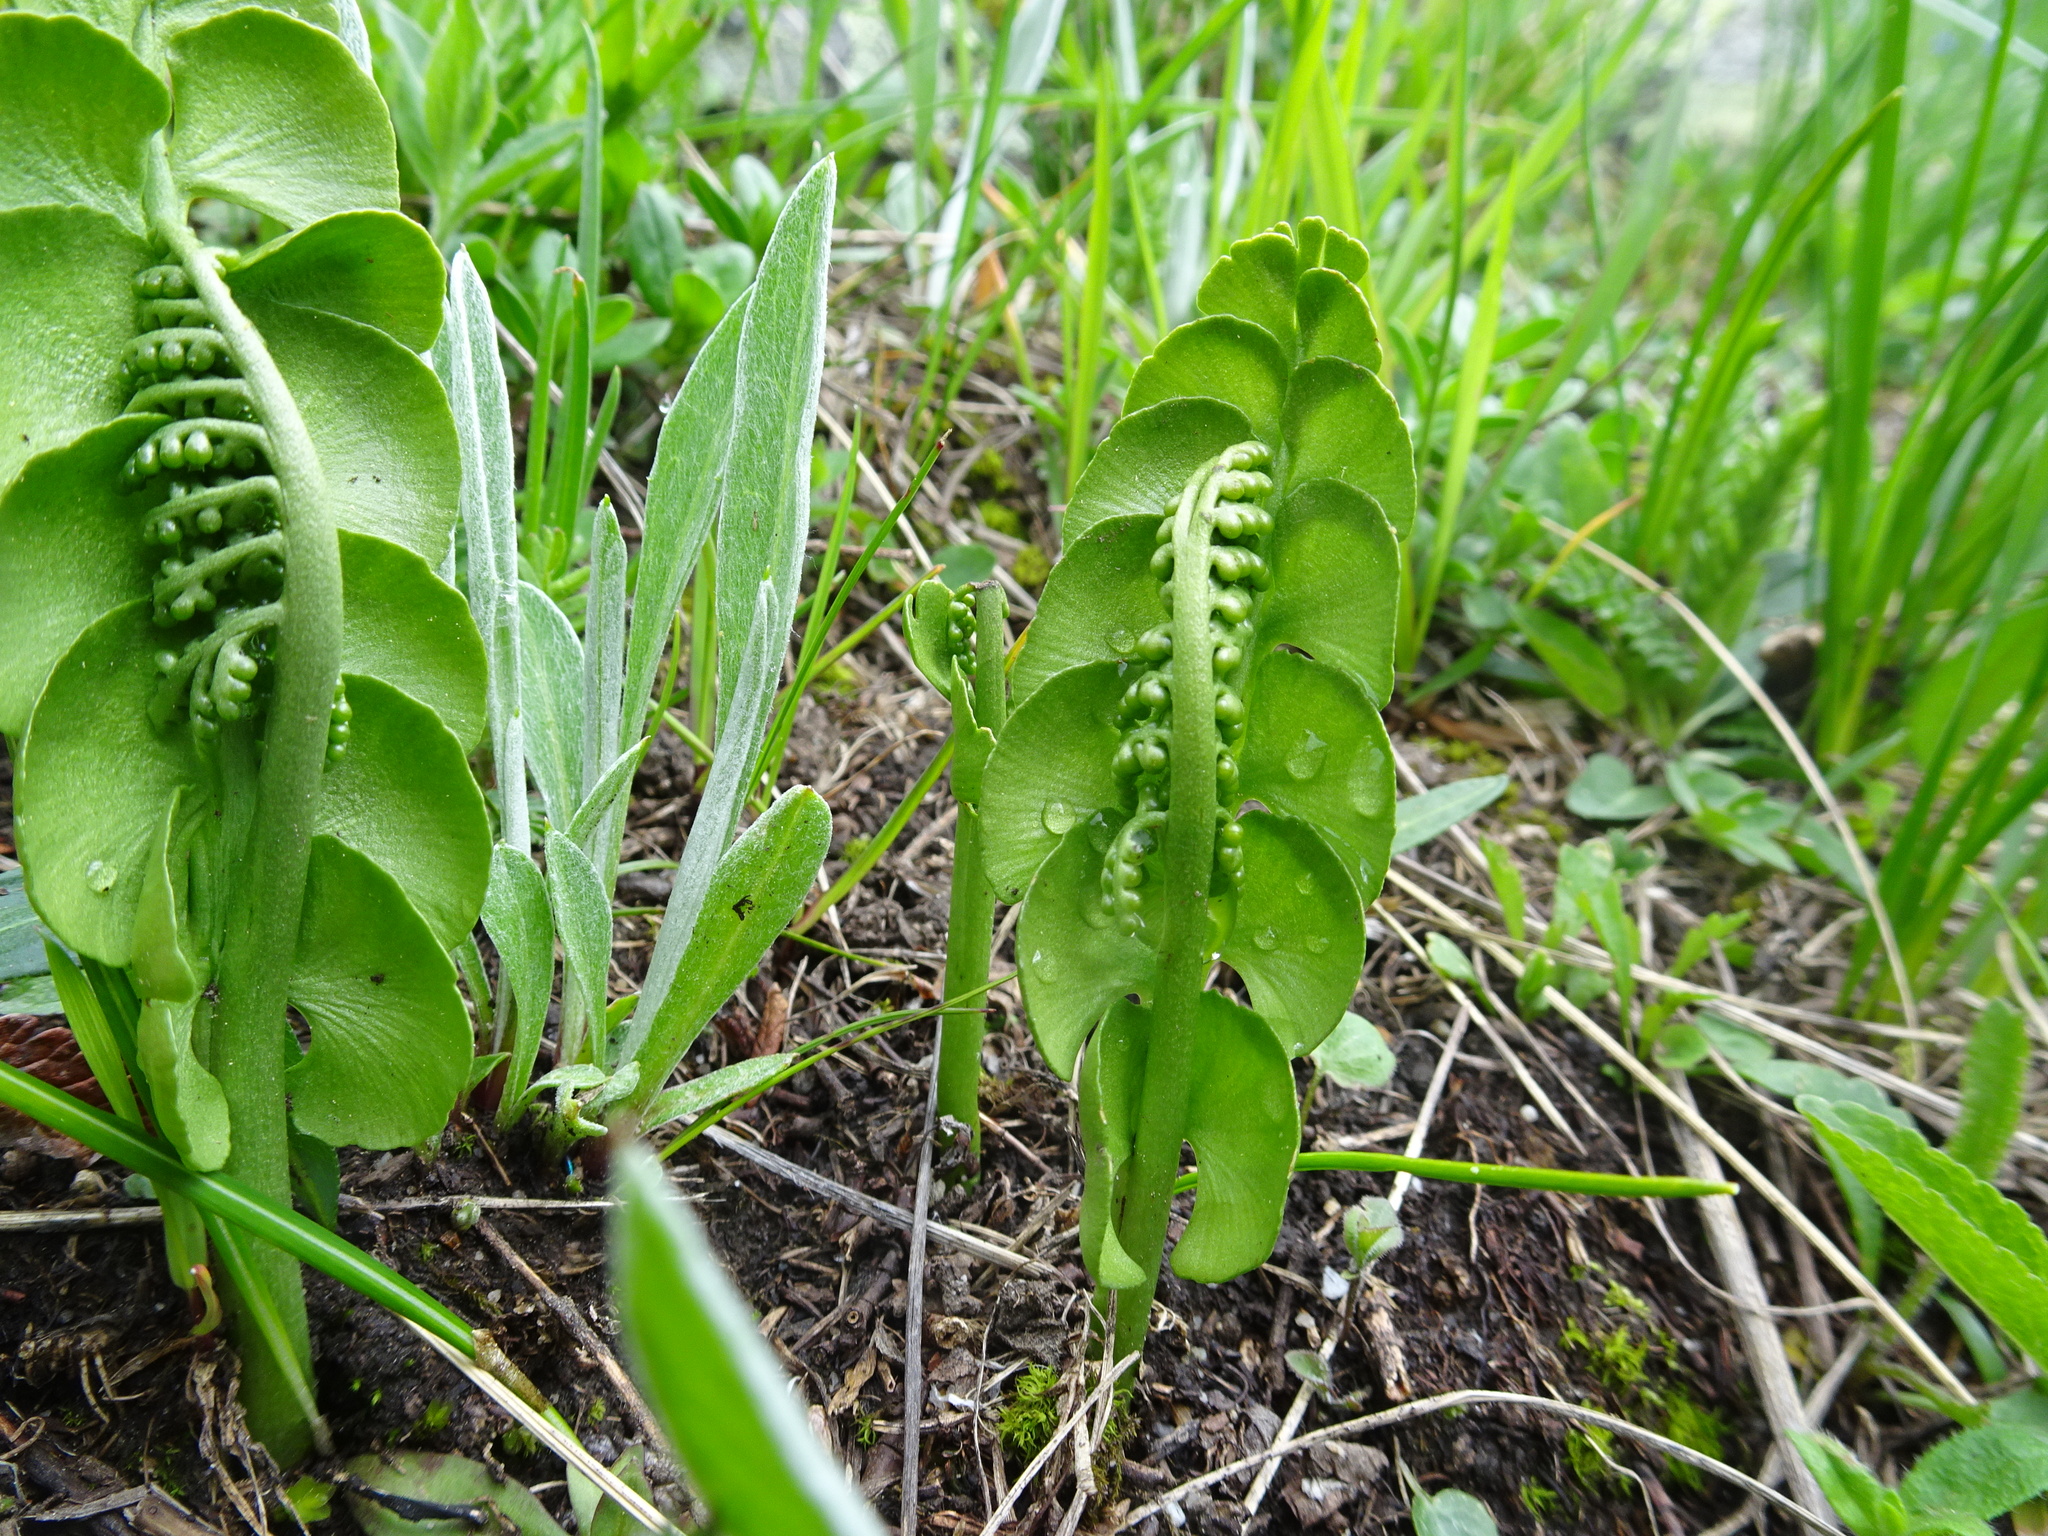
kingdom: Plantae
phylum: Tracheophyta
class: Polypodiopsida
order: Ophioglossales
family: Ophioglossaceae
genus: Botrychium
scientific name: Botrychium lunaria
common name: Moonwort
